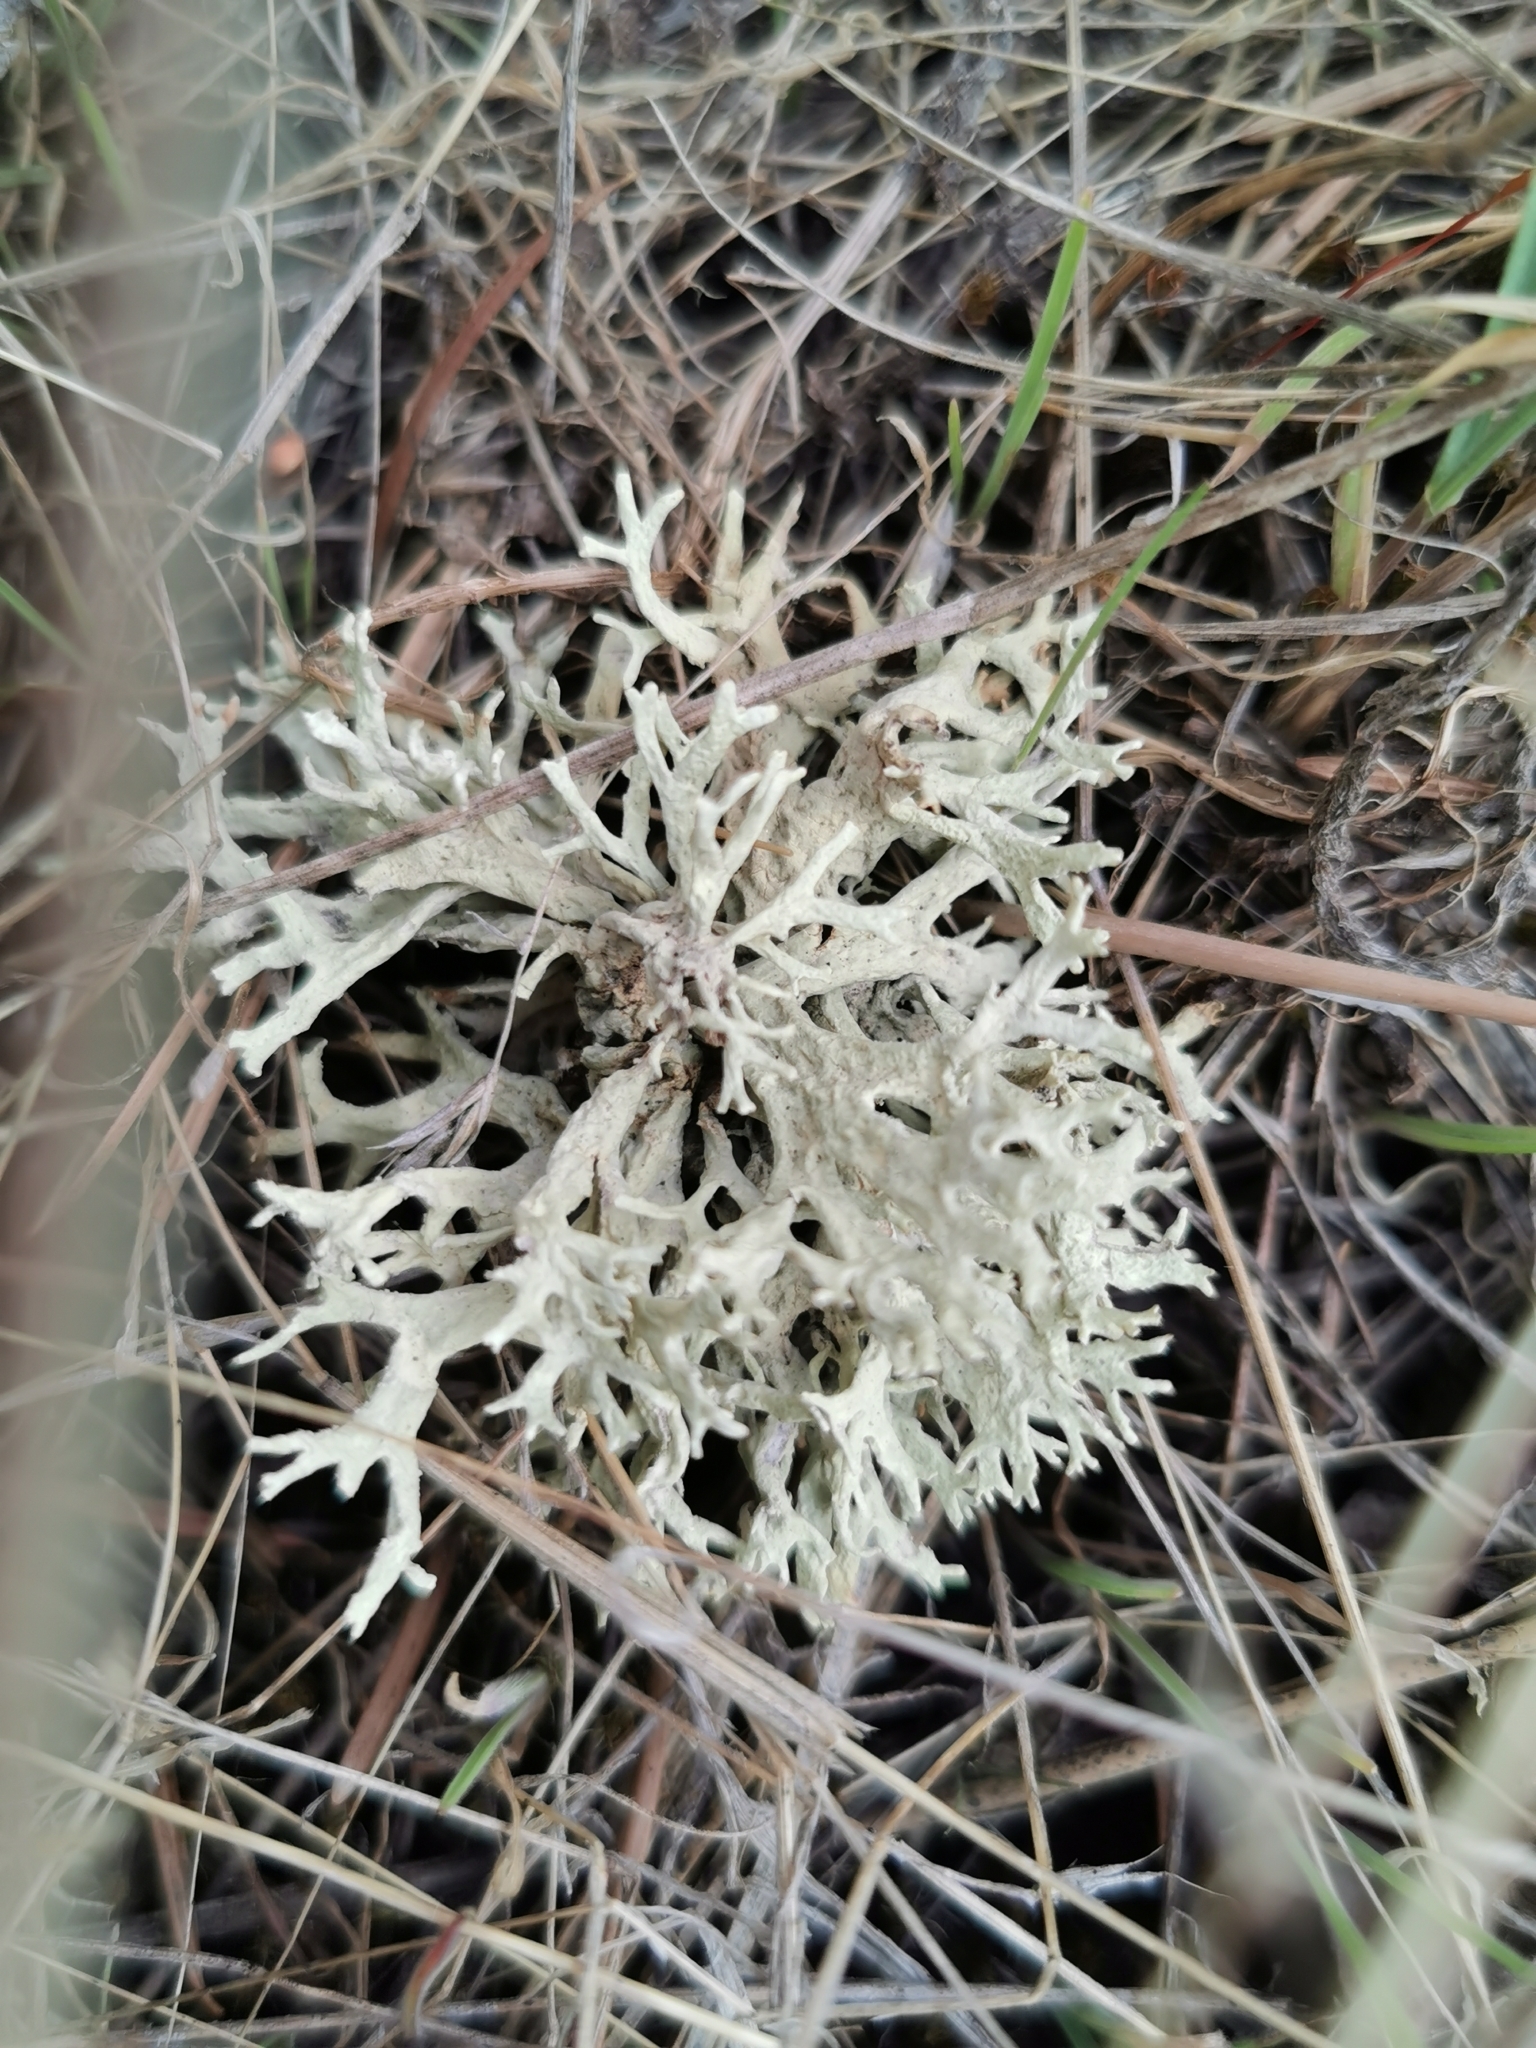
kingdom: Fungi
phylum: Ascomycota
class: Lecanoromycetes
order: Lecanorales
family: Parmeliaceae
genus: Evernia
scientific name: Evernia prunastri
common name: Oak moss
